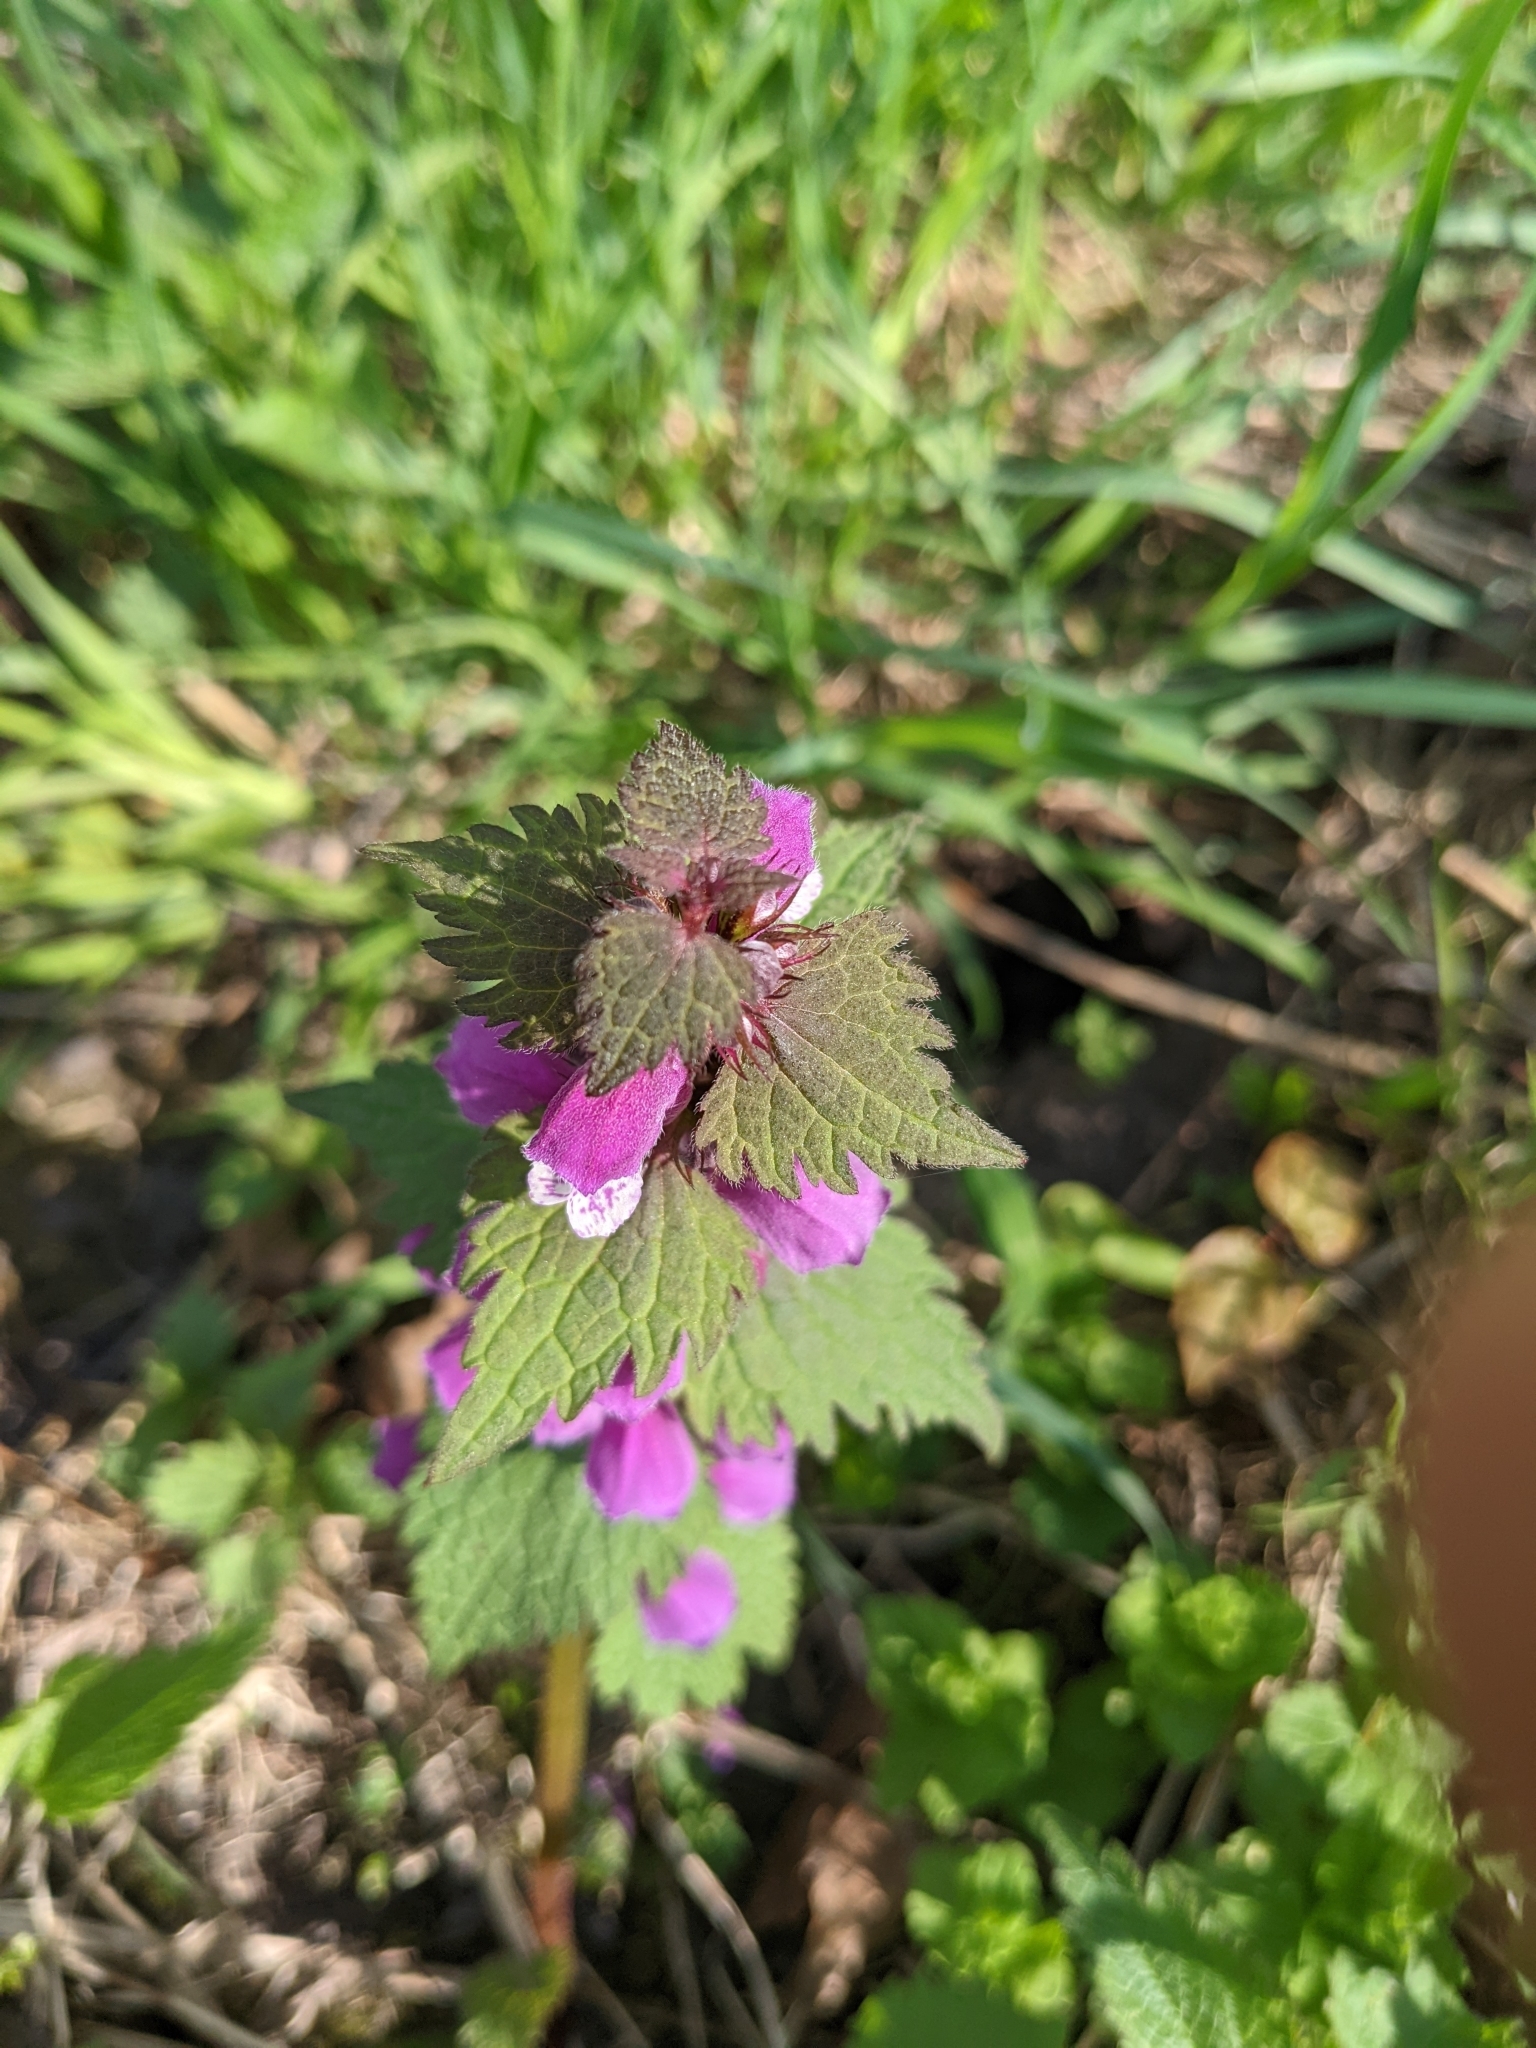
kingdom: Plantae
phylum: Tracheophyta
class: Magnoliopsida
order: Lamiales
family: Lamiaceae
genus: Lamium
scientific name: Lamium maculatum
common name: Spotted dead-nettle
